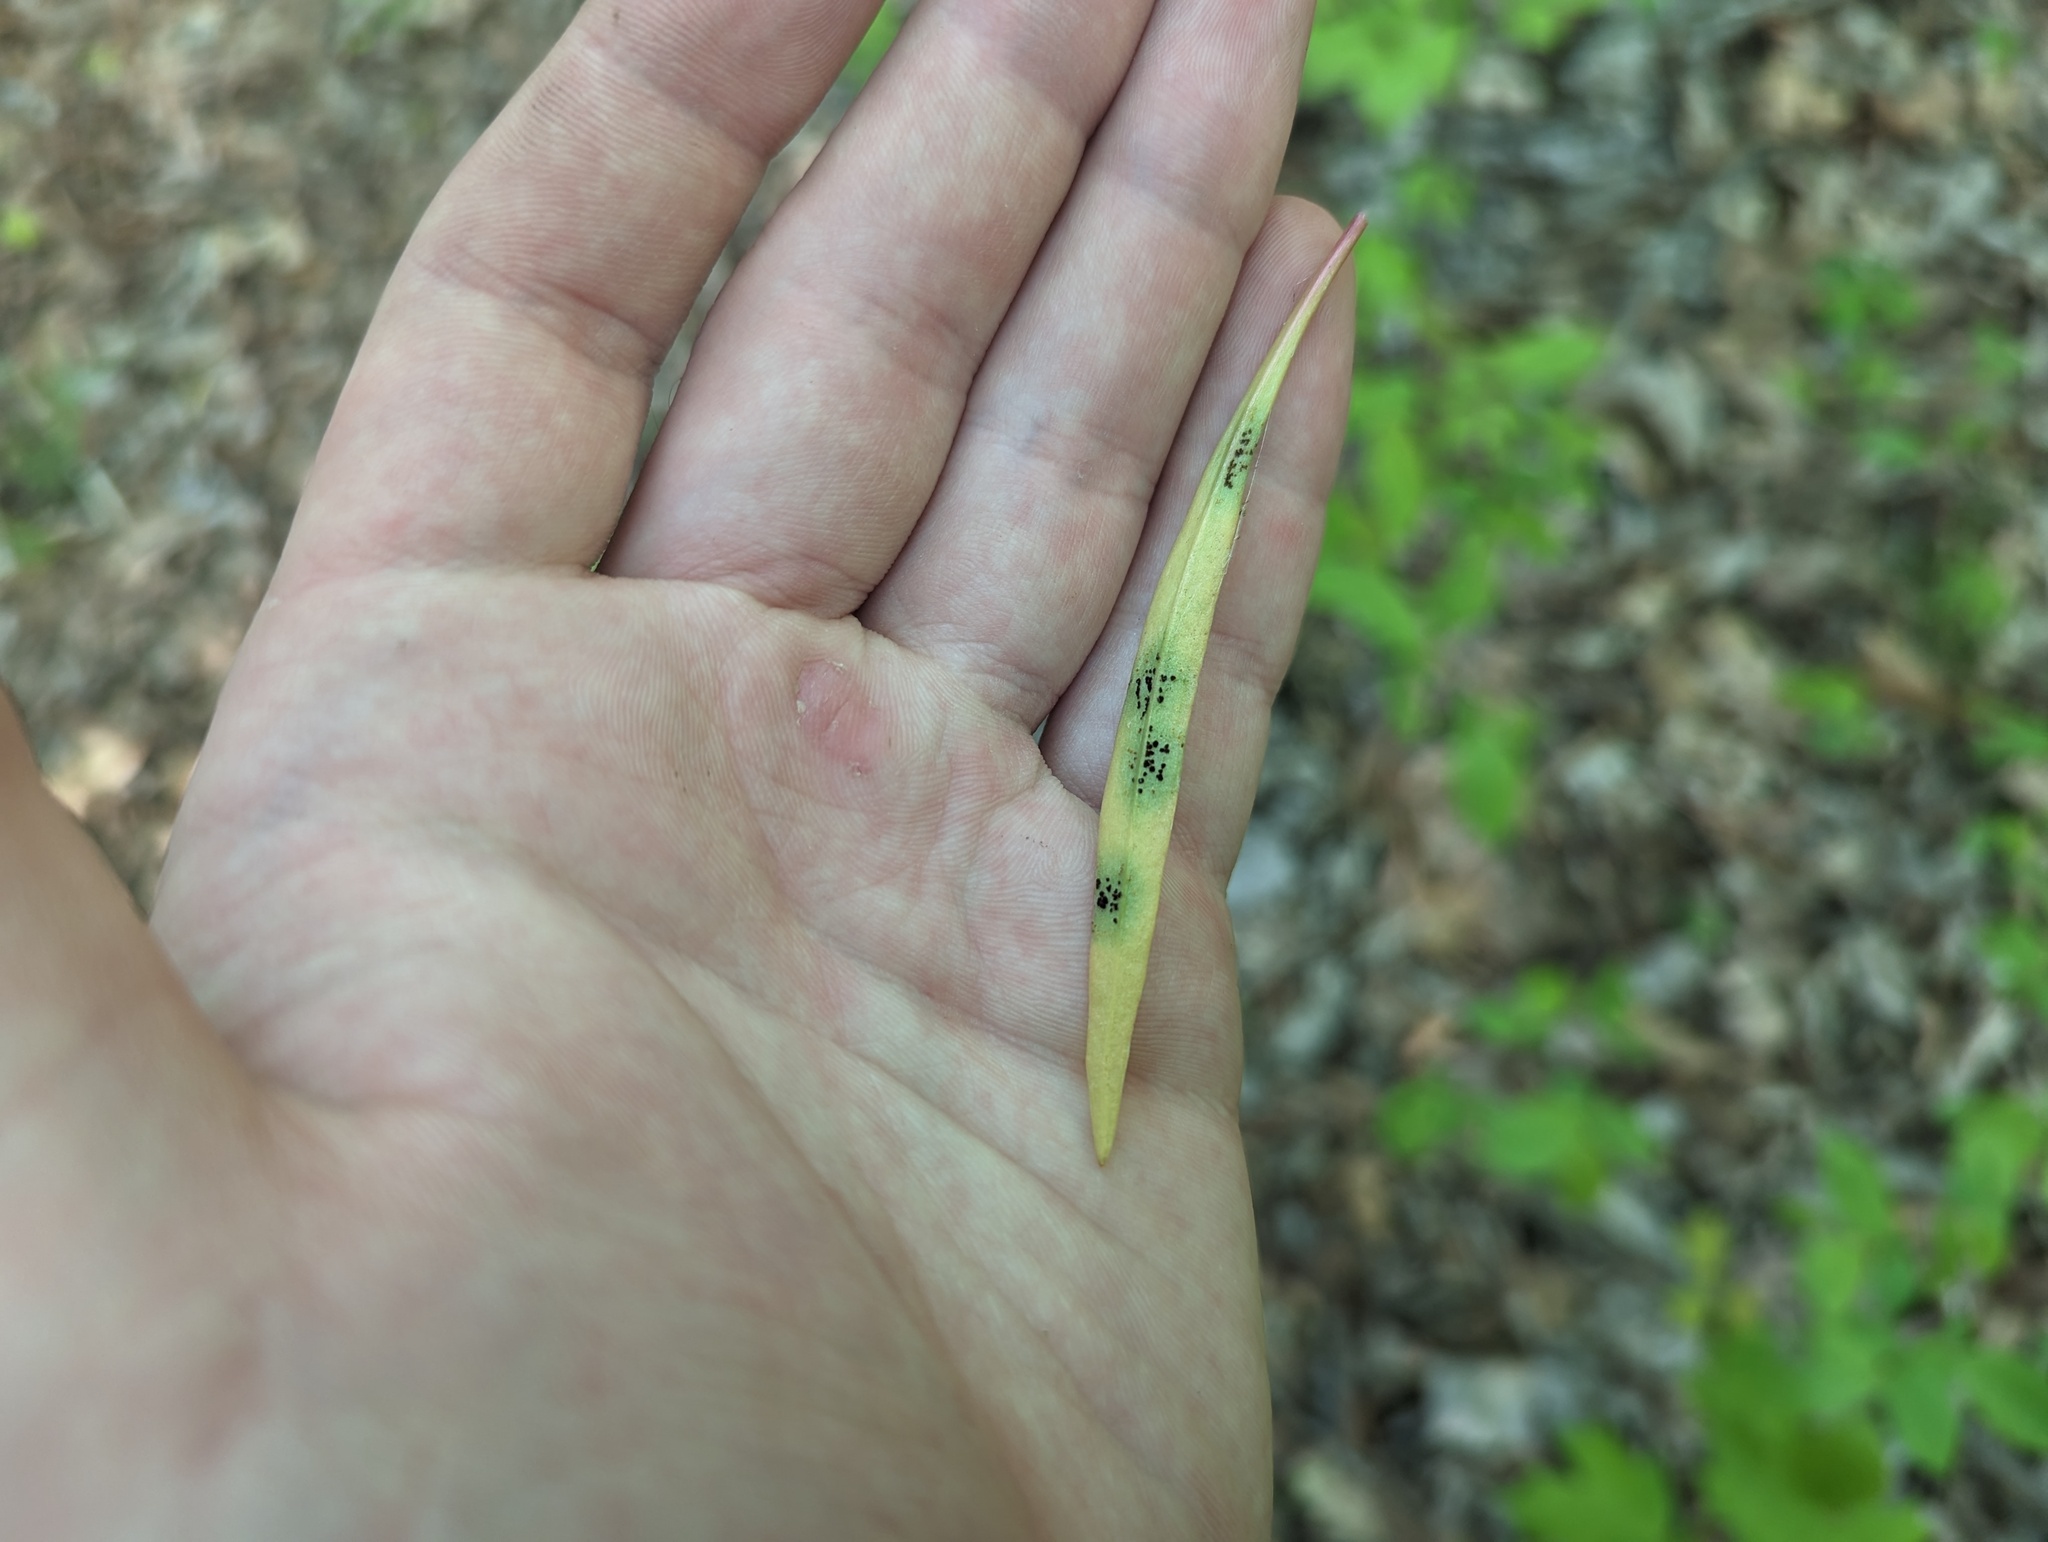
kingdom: Fungi
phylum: Basidiomycota
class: Pucciniomycetes
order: Pucciniales
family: Pucciniaceae
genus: Puccinia
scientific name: Puccinia mariae-wilsoniae
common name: Spring beauty rust
